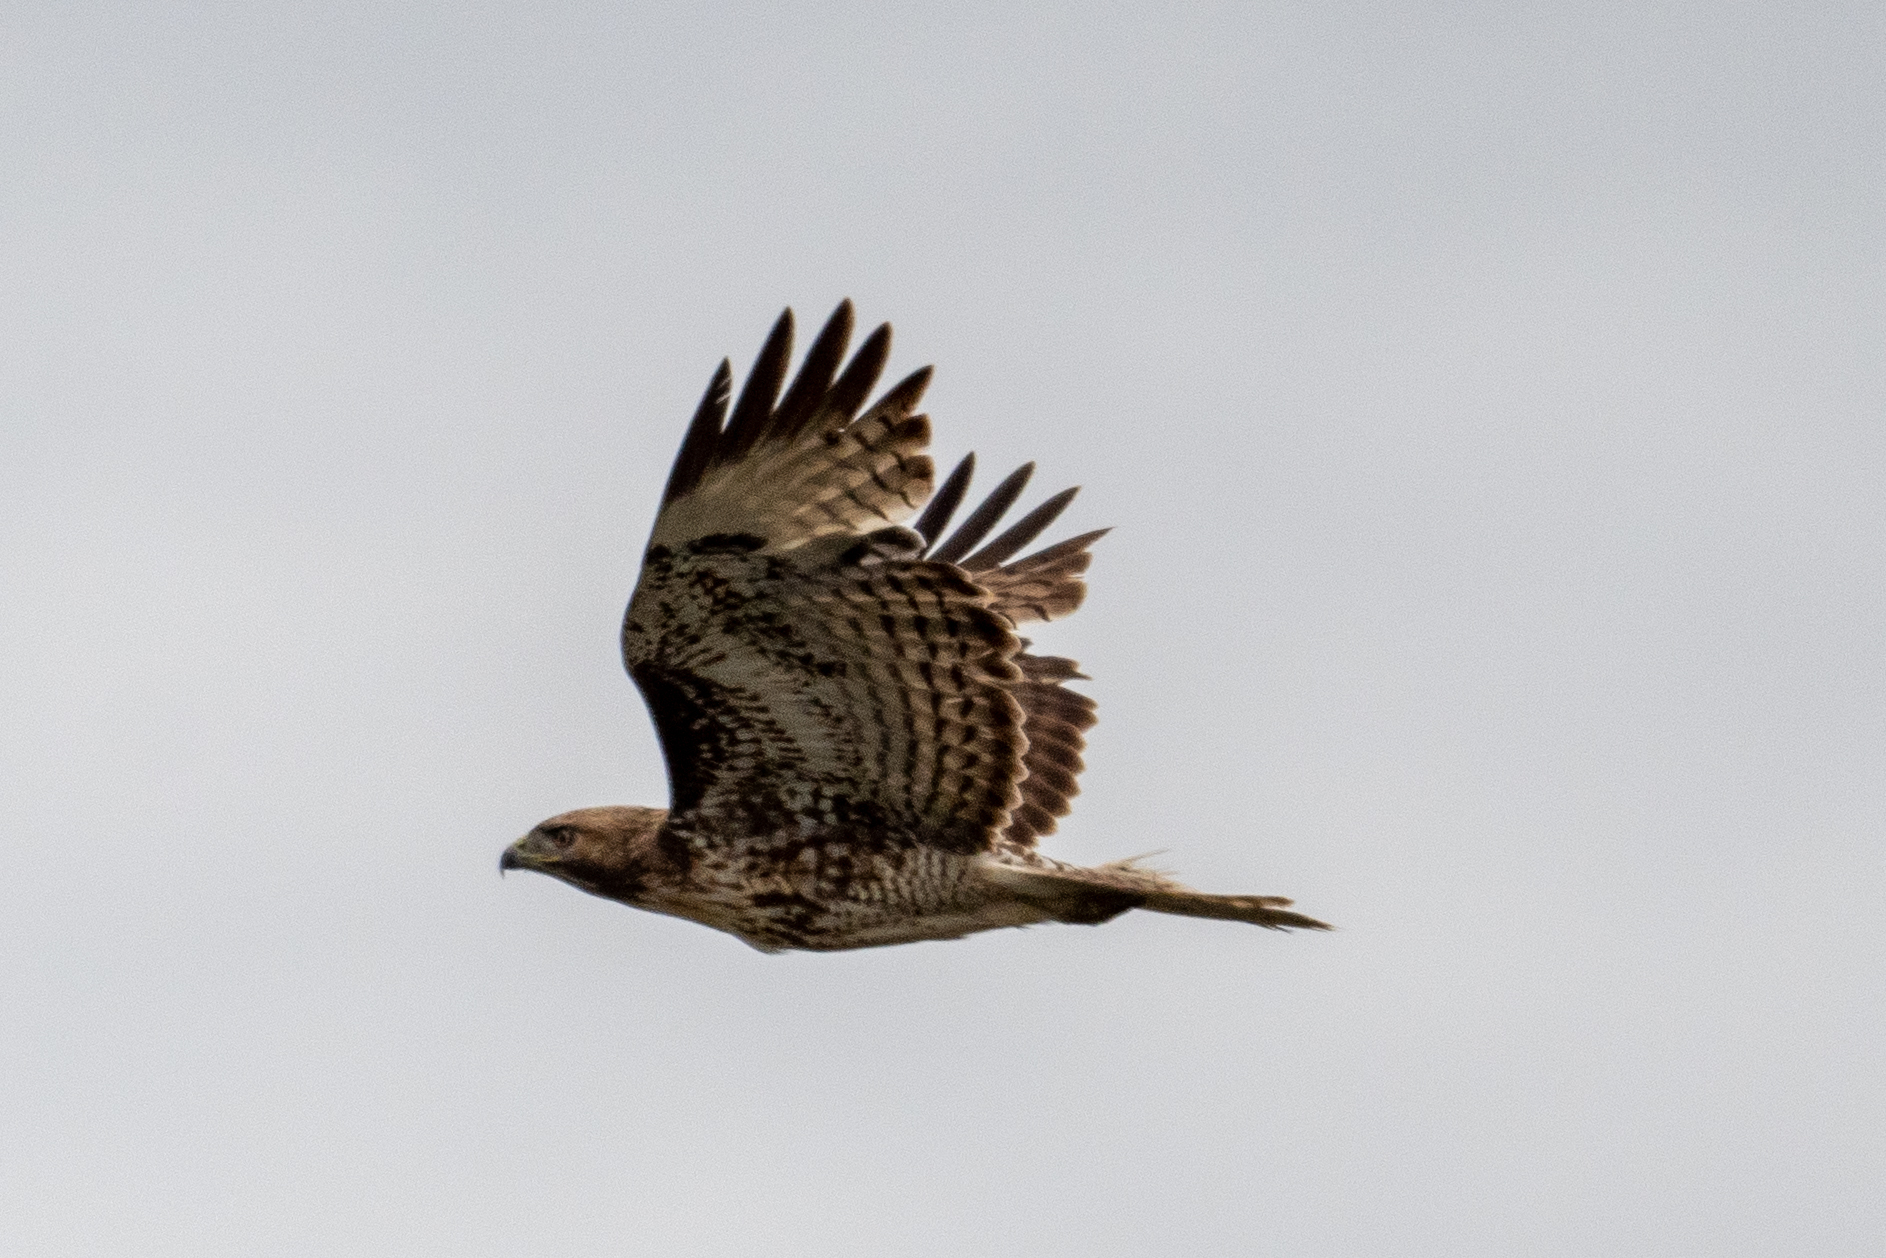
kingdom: Animalia
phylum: Chordata
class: Aves
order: Accipitriformes
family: Accipitridae
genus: Buteo
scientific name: Buteo jamaicensis
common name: Red-tailed hawk
